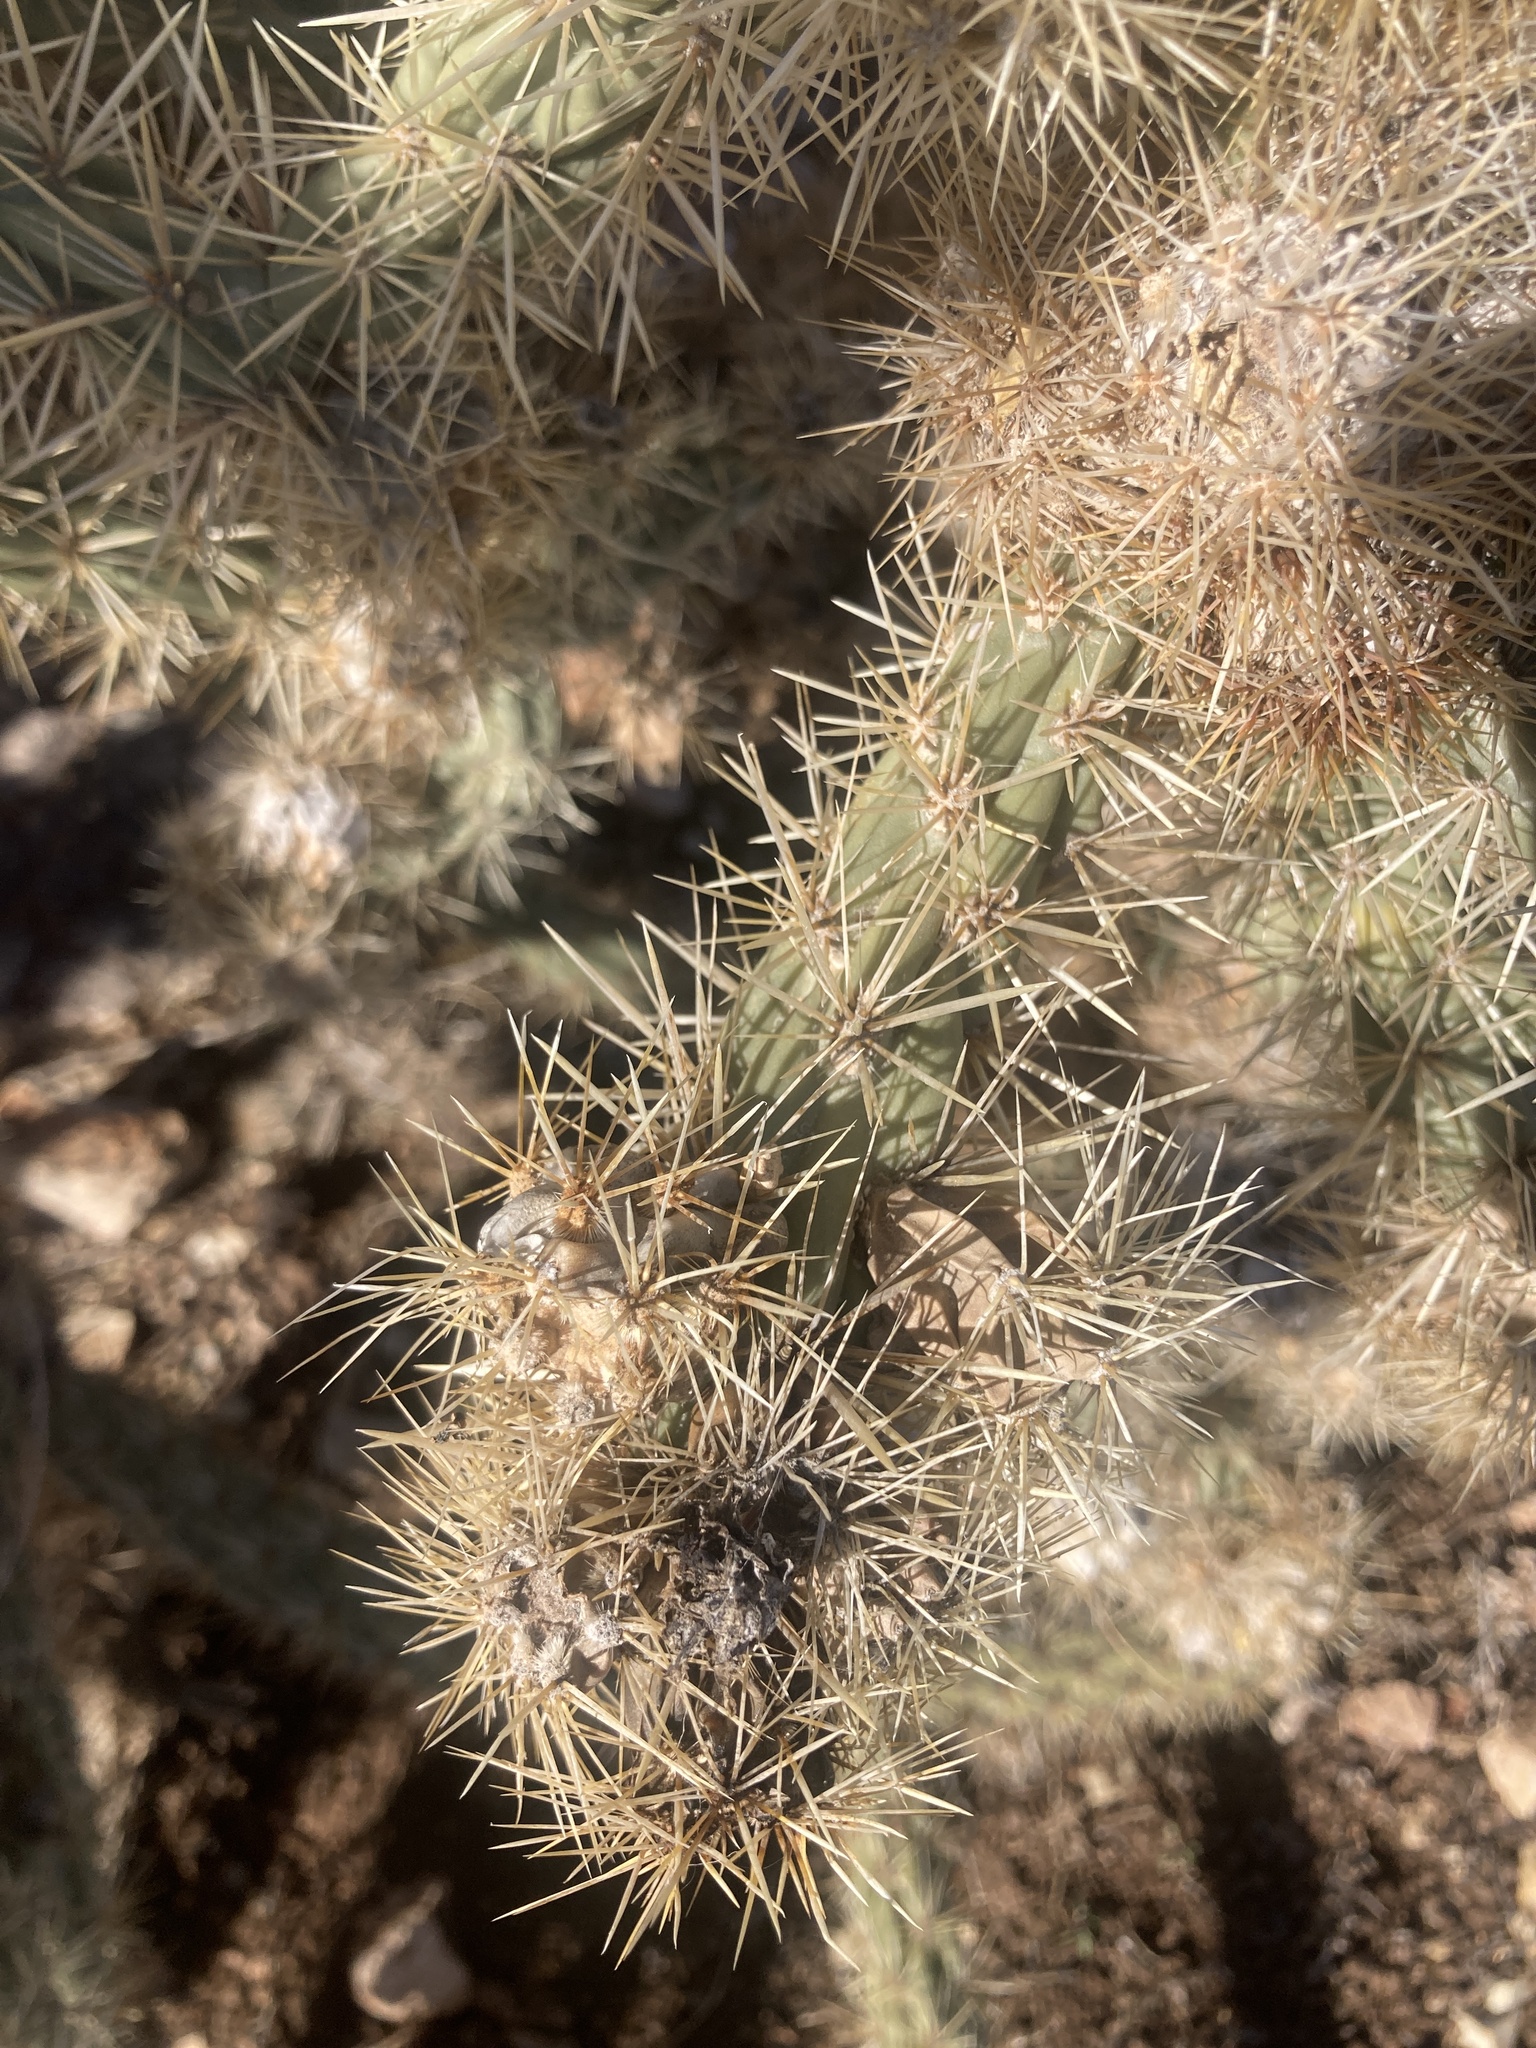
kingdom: Plantae
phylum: Tracheophyta
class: Magnoliopsida
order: Caryophyllales
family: Cactaceae
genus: Cylindropuntia
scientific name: Cylindropuntia acanthocarpa
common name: Buckhorn cholla
